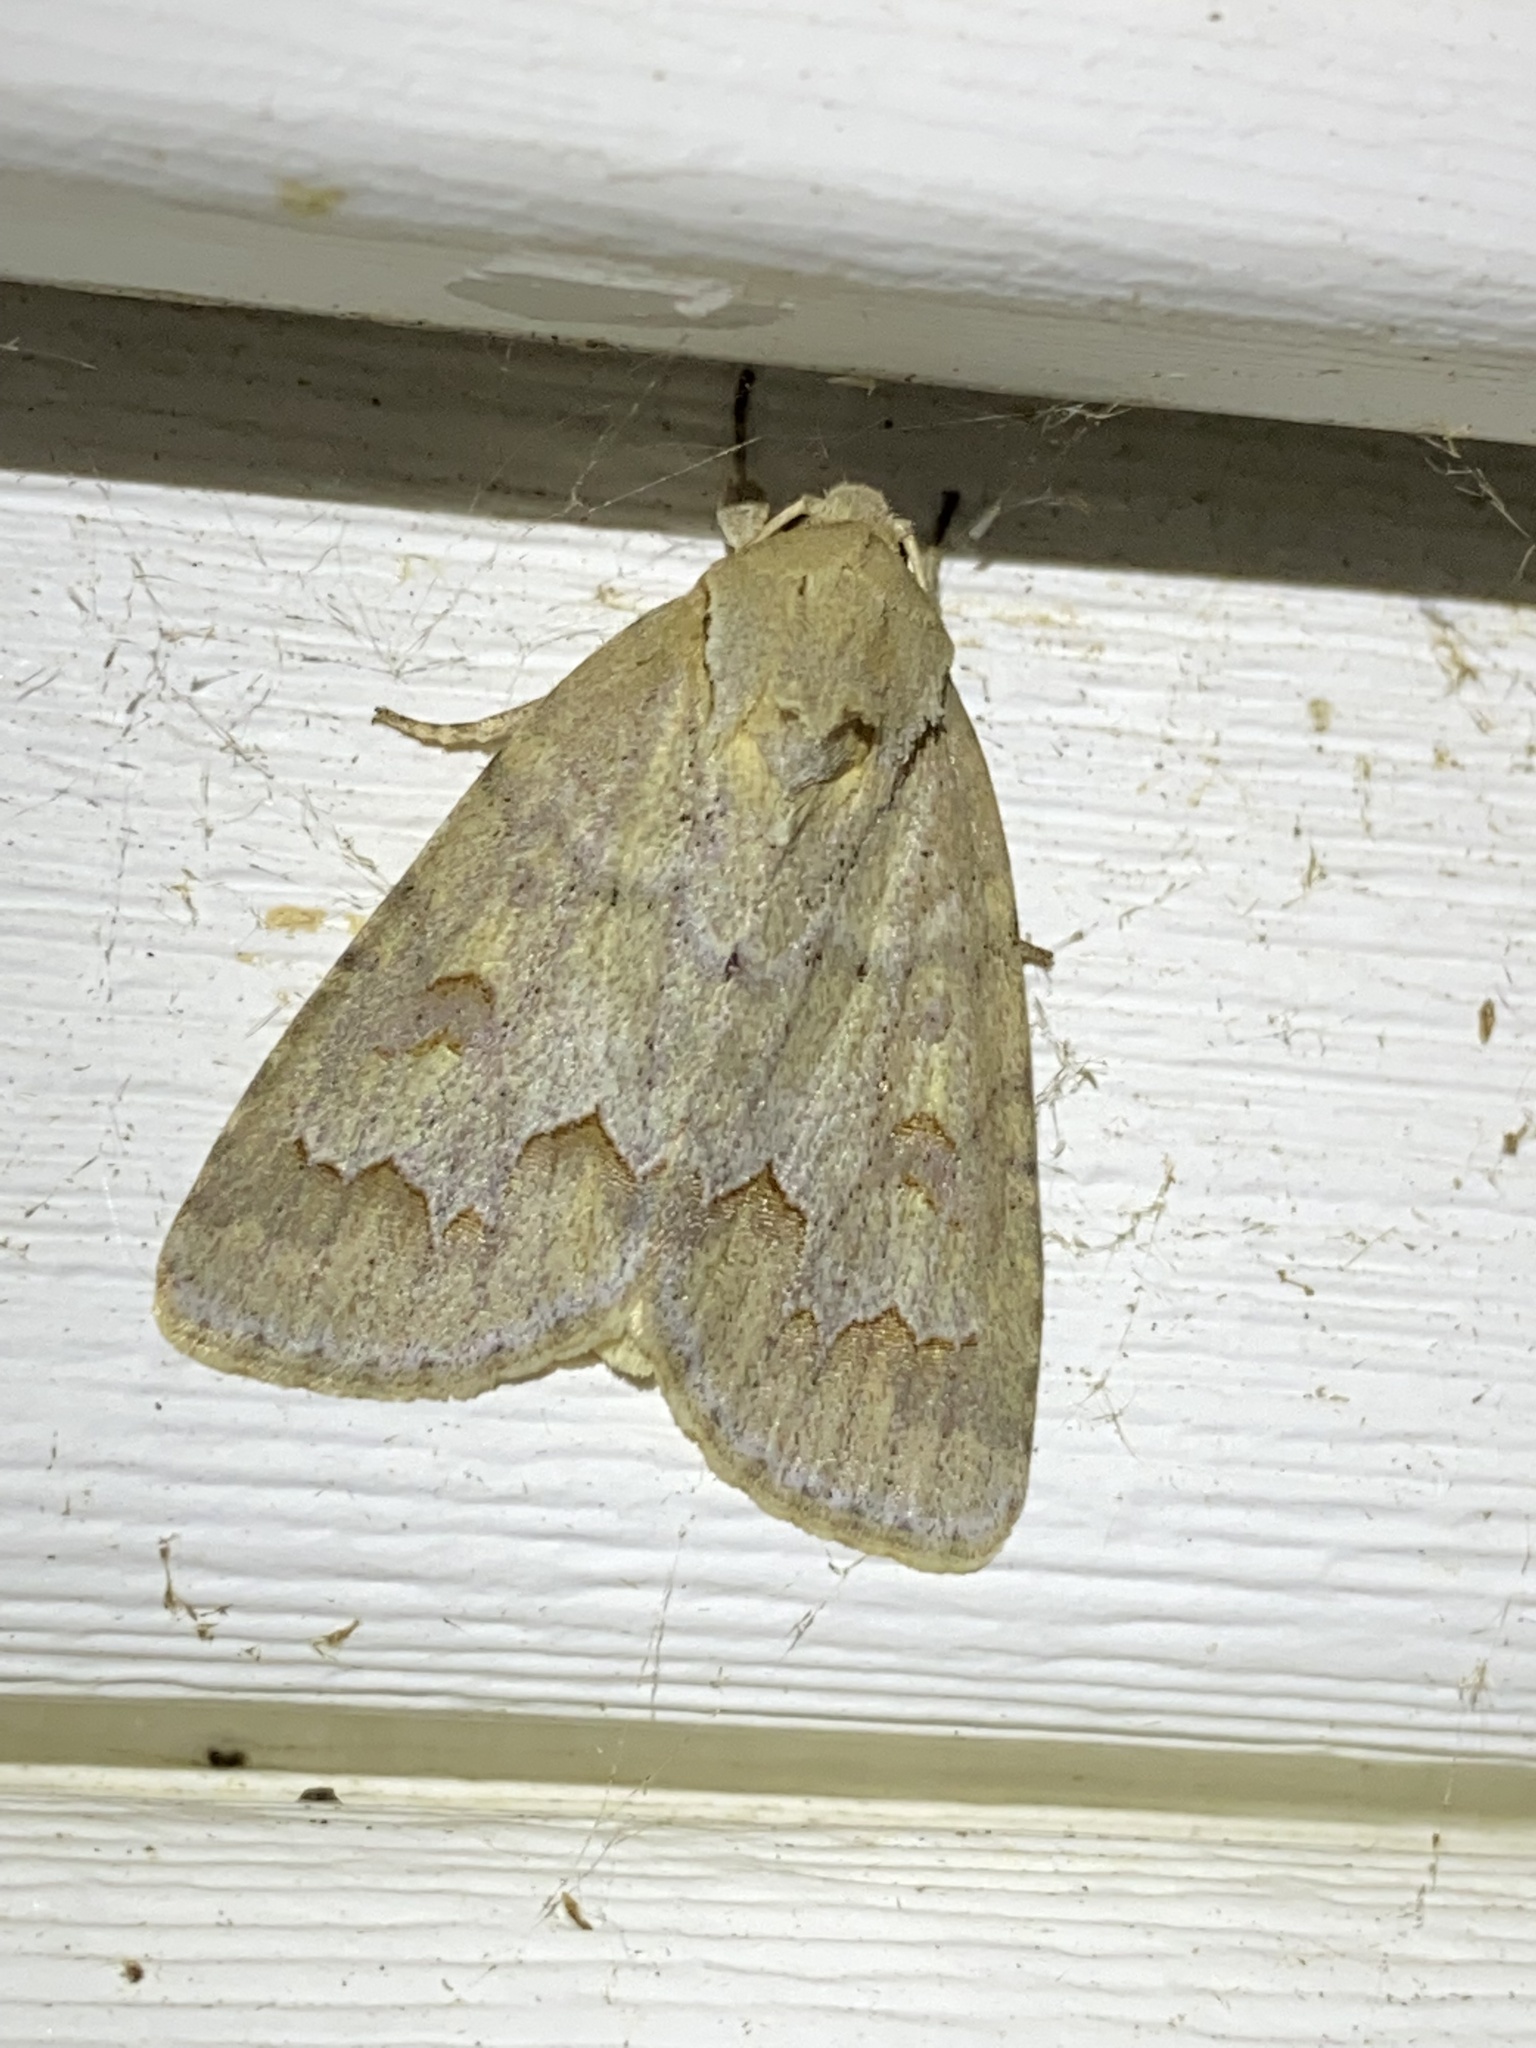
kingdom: Animalia
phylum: Arthropoda
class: Insecta
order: Lepidoptera
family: Noctuidae
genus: Acronicta
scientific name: Acronicta betulae
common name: Birch dagger moth
